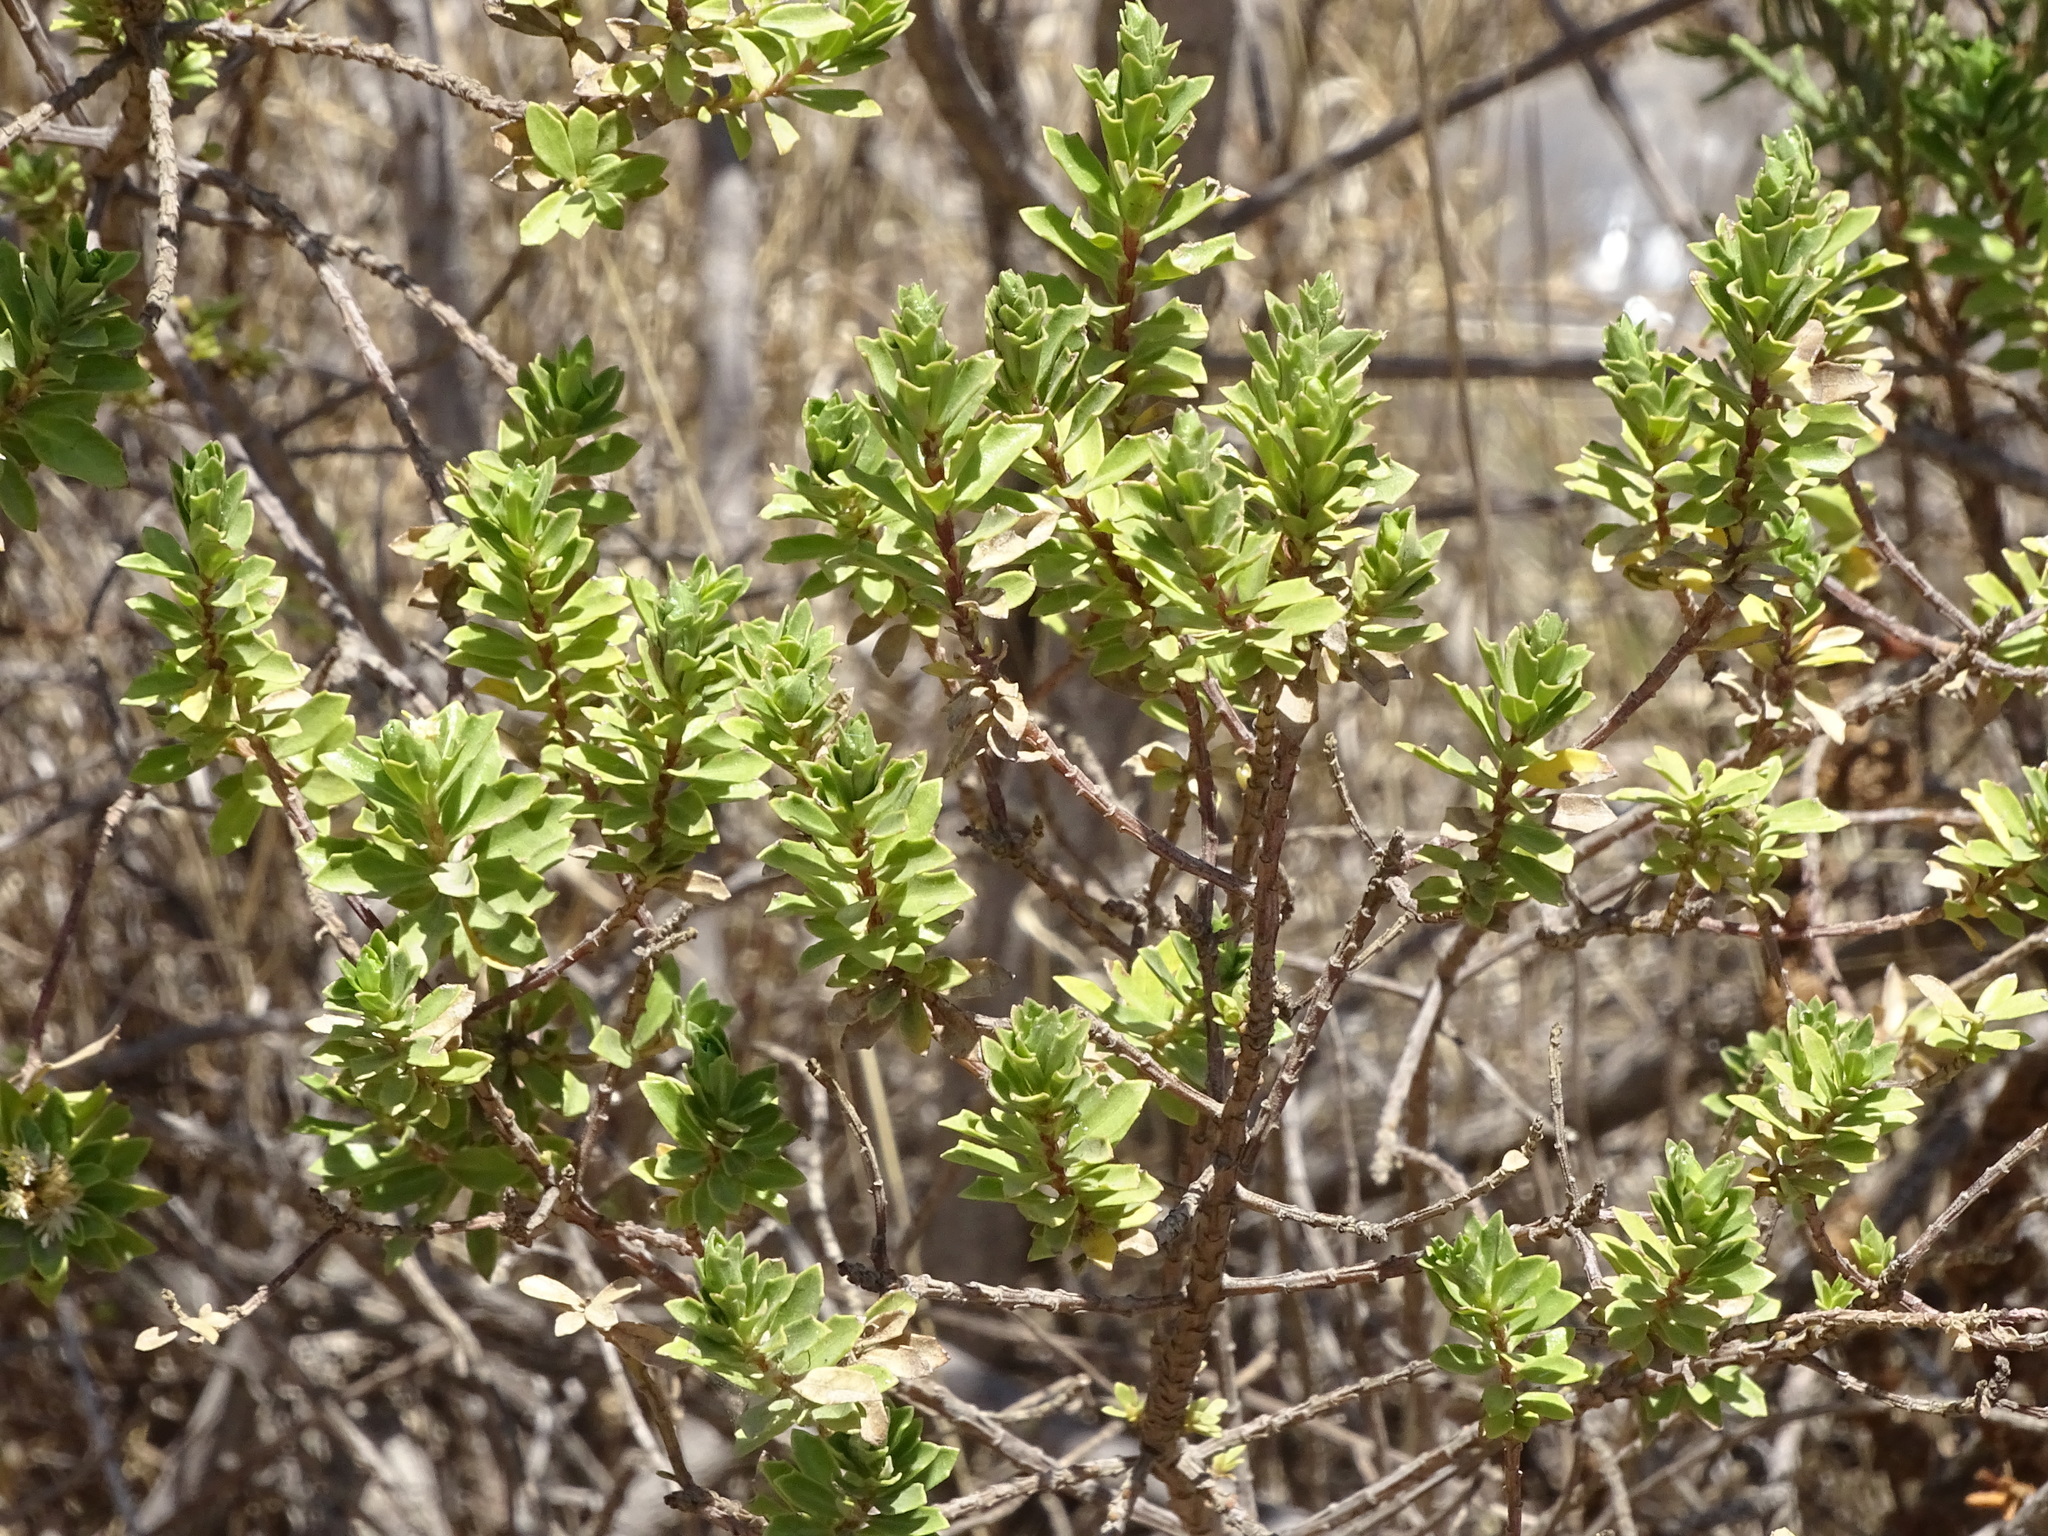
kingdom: Plantae
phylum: Tracheophyta
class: Magnoliopsida
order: Asterales
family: Asteraceae
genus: Baccharis
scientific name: Baccharis conferta
